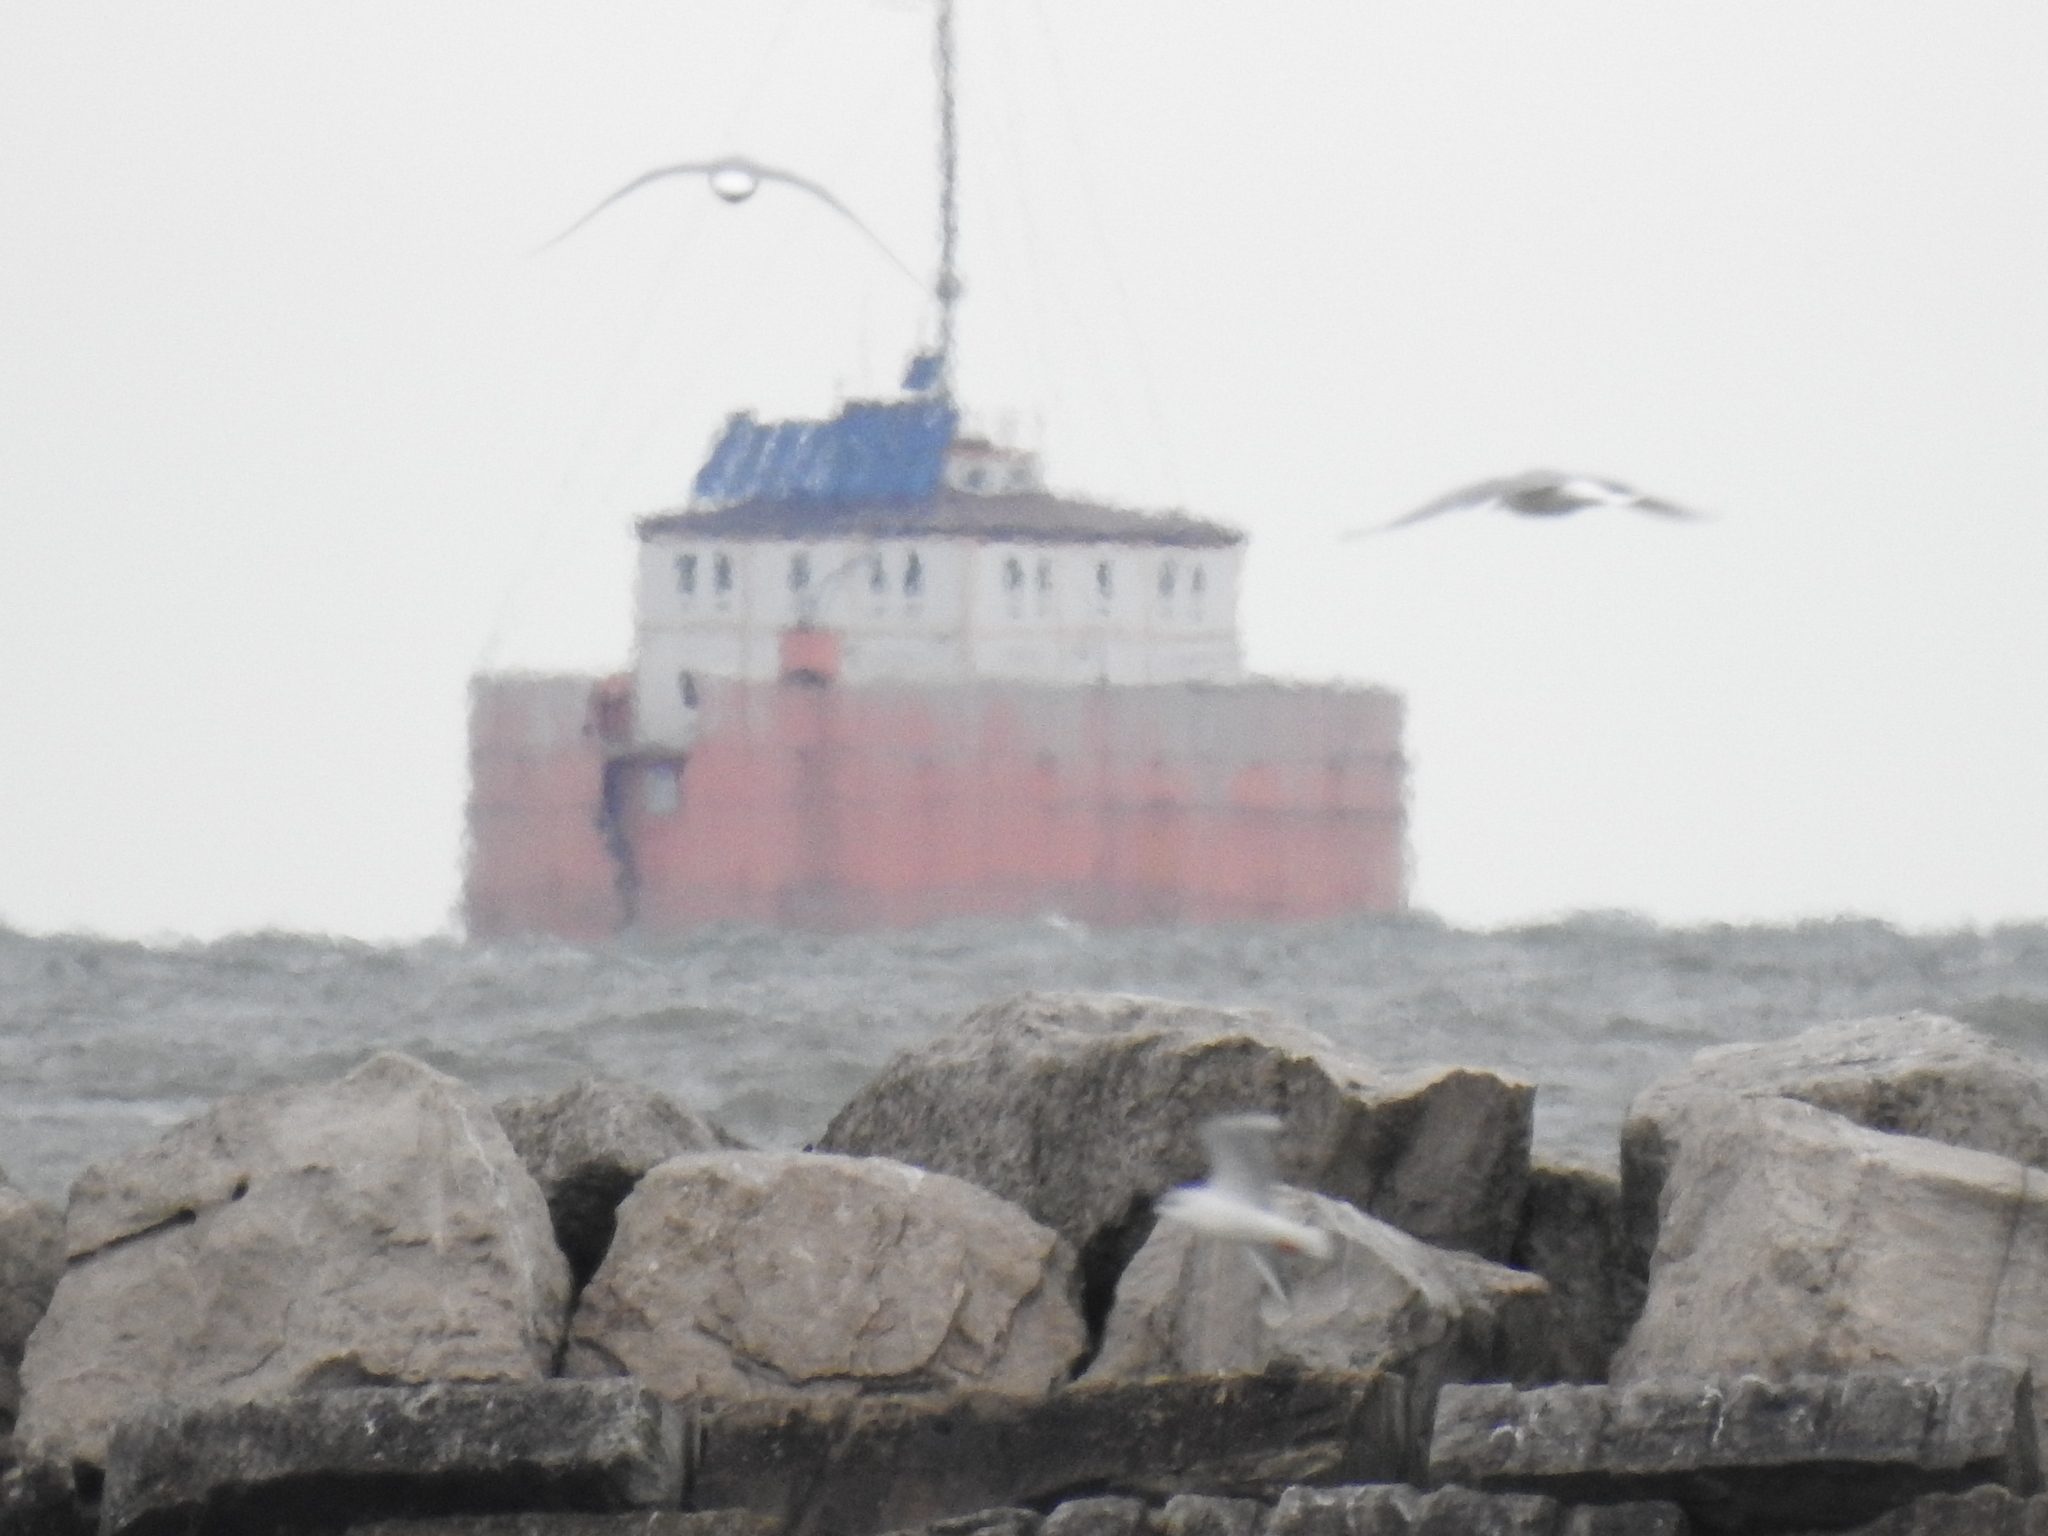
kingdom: Animalia
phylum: Chordata
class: Aves
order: Charadriiformes
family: Laridae
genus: Chroicocephalus
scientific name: Chroicocephalus philadelphia
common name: Bonaparte's gull
